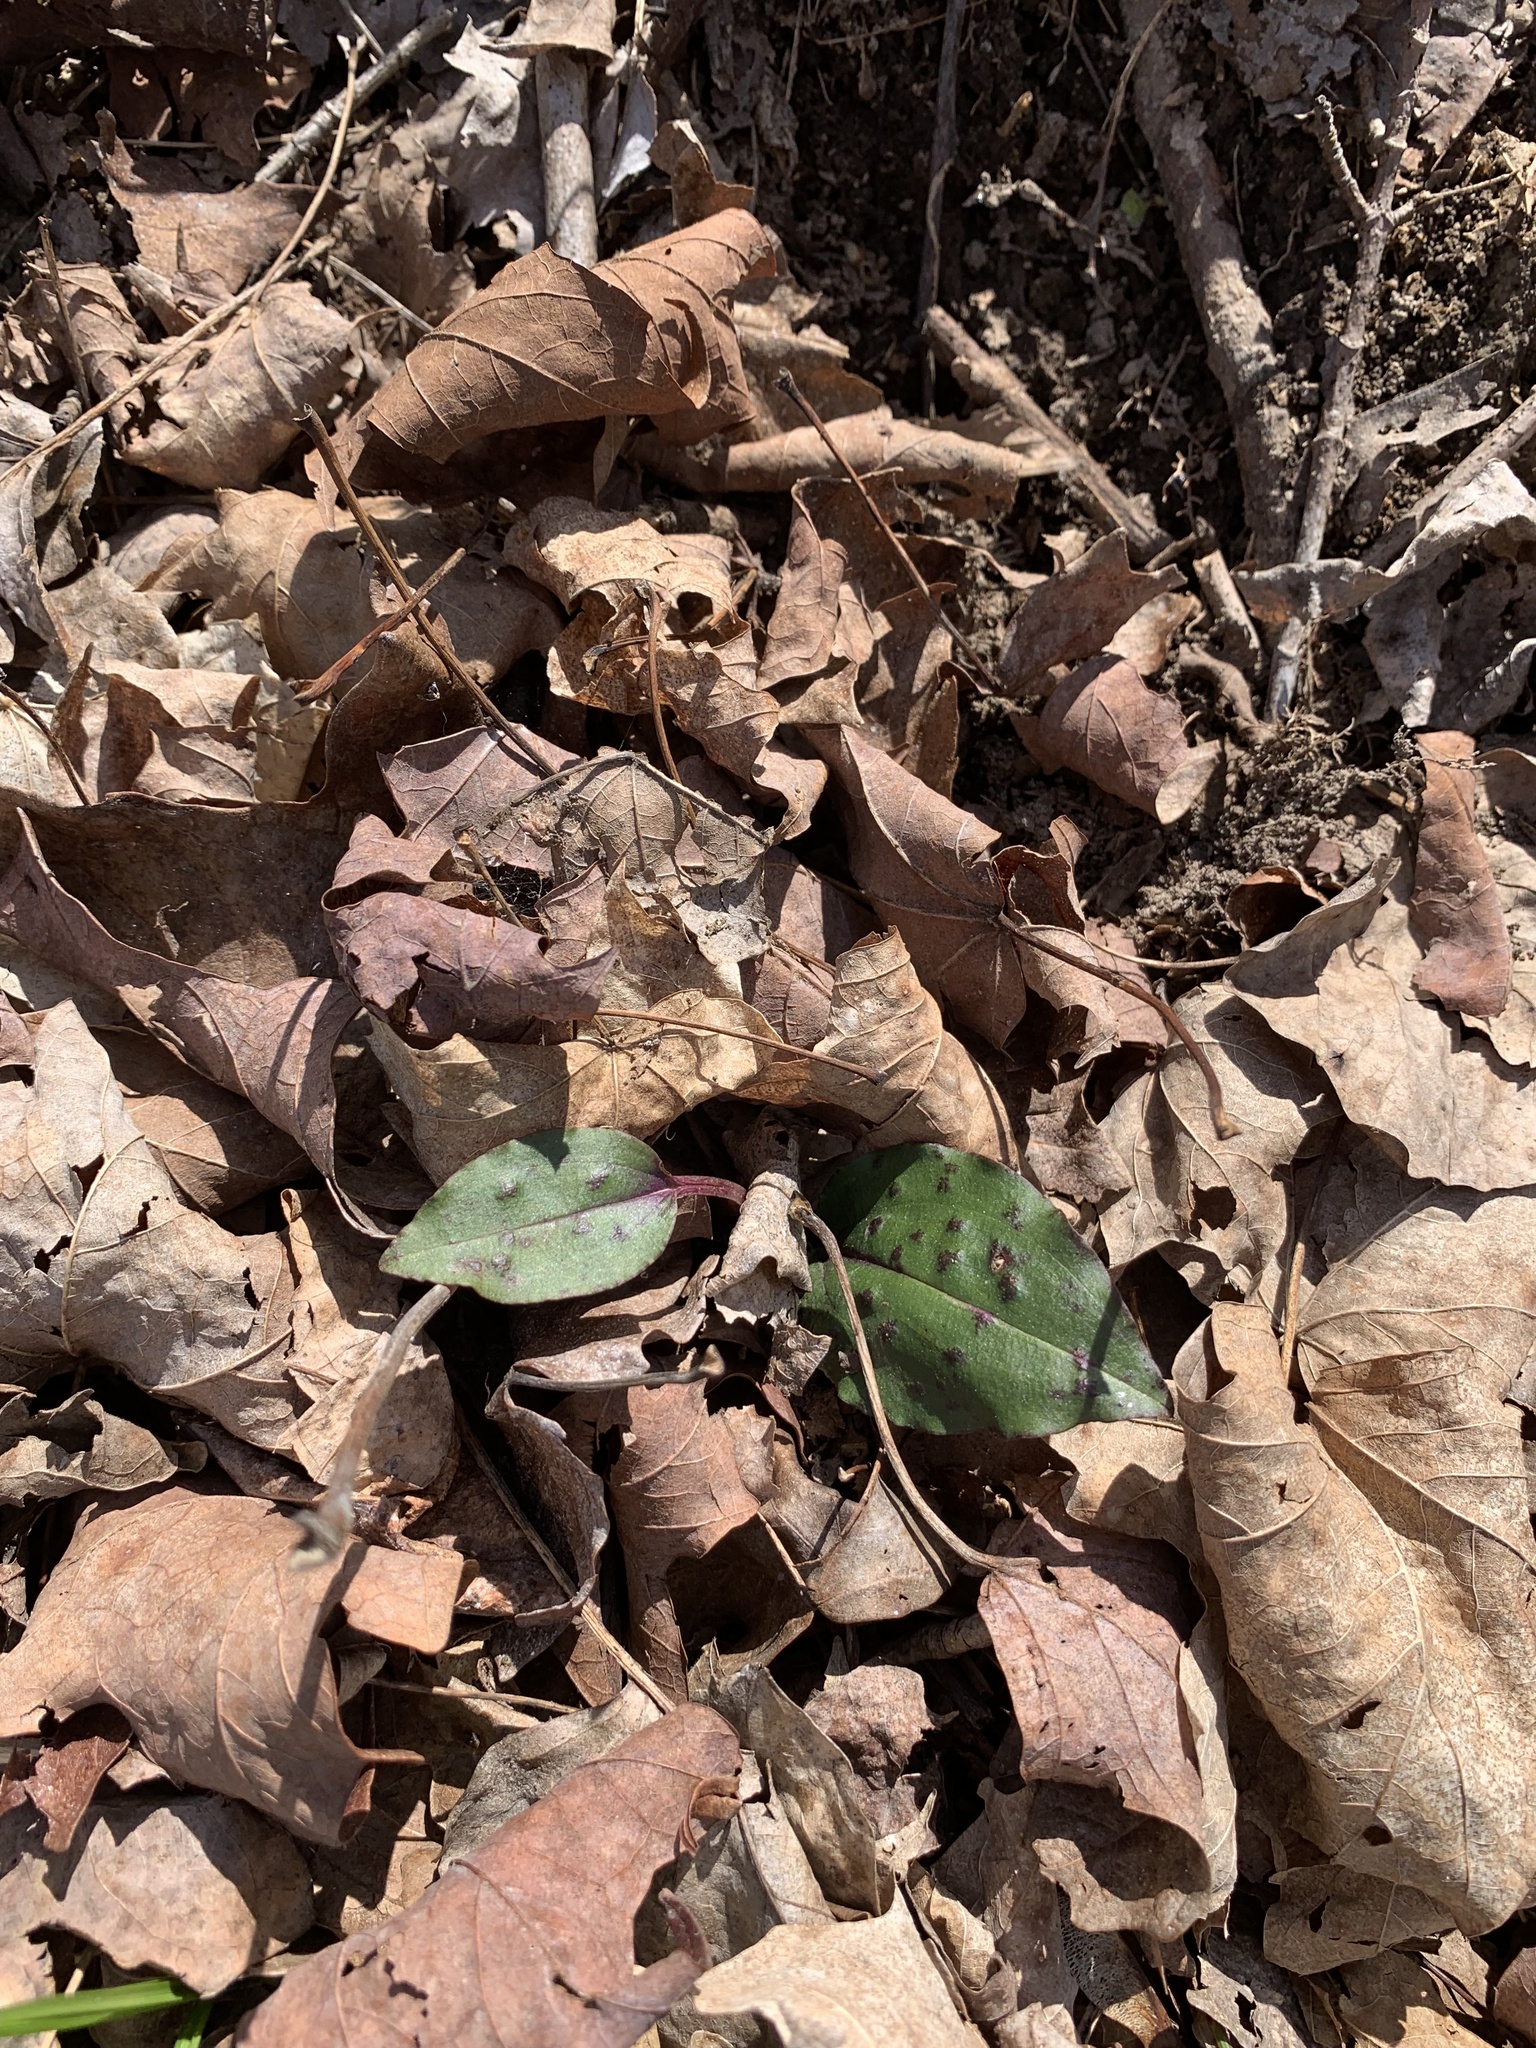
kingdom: Plantae
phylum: Tracheophyta
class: Liliopsida
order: Asparagales
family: Orchidaceae
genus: Tipularia
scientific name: Tipularia discolor
